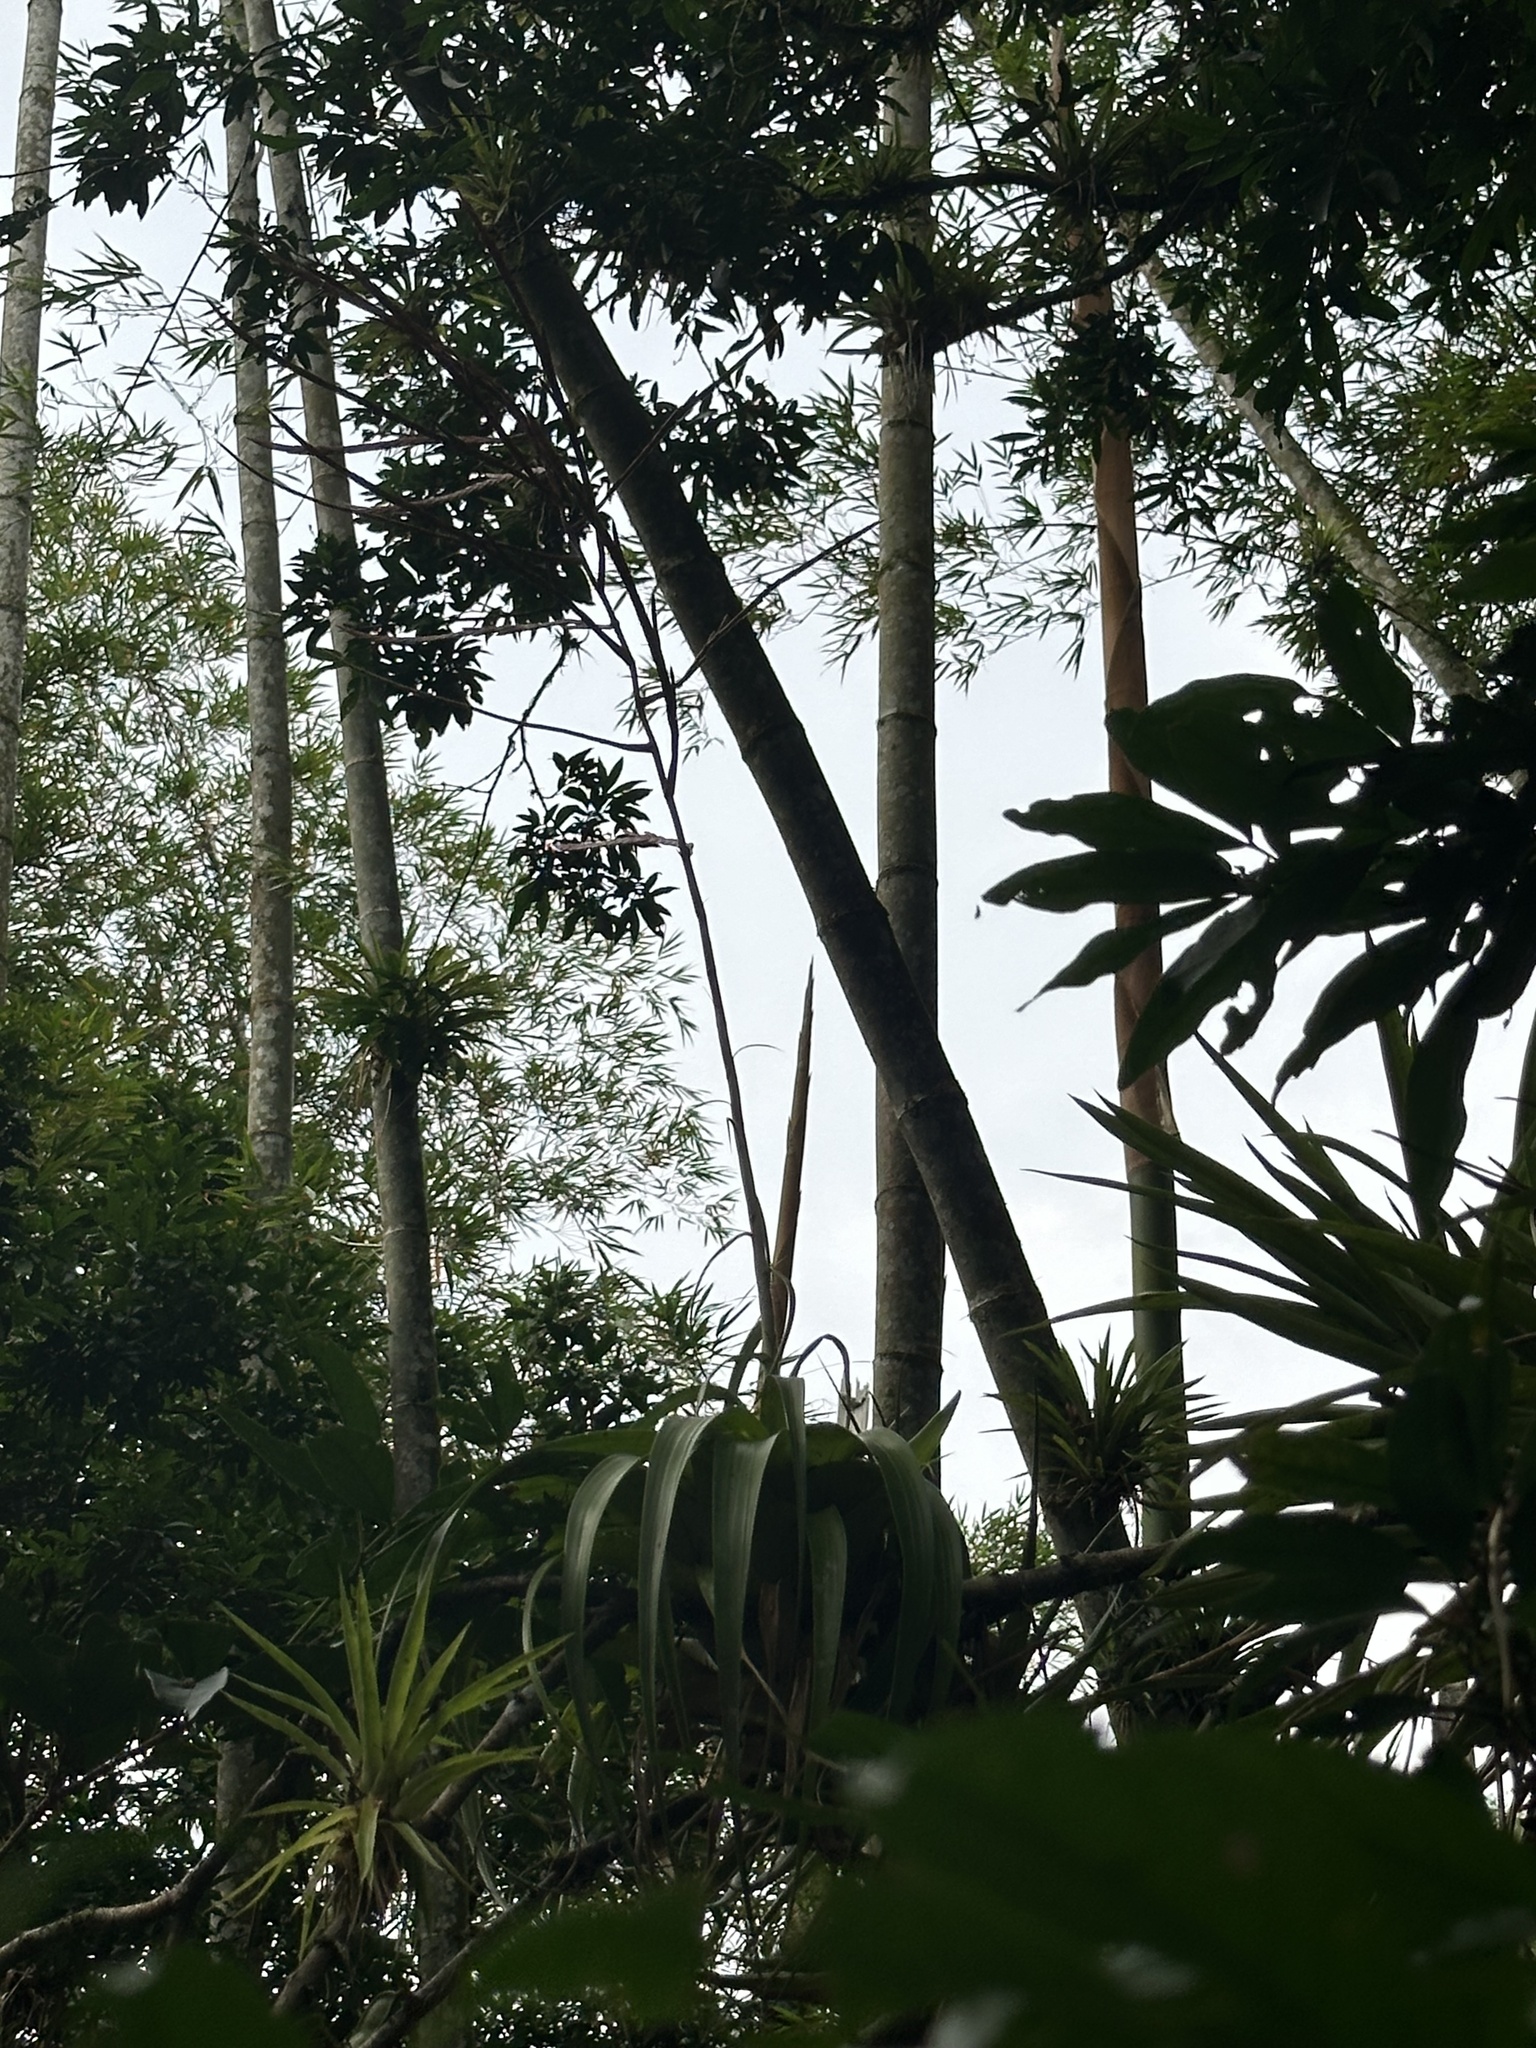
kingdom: Plantae
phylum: Tracheophyta
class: Liliopsida
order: Poales
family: Bromeliaceae
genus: Tillandsia
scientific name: Tillandsia elongata
